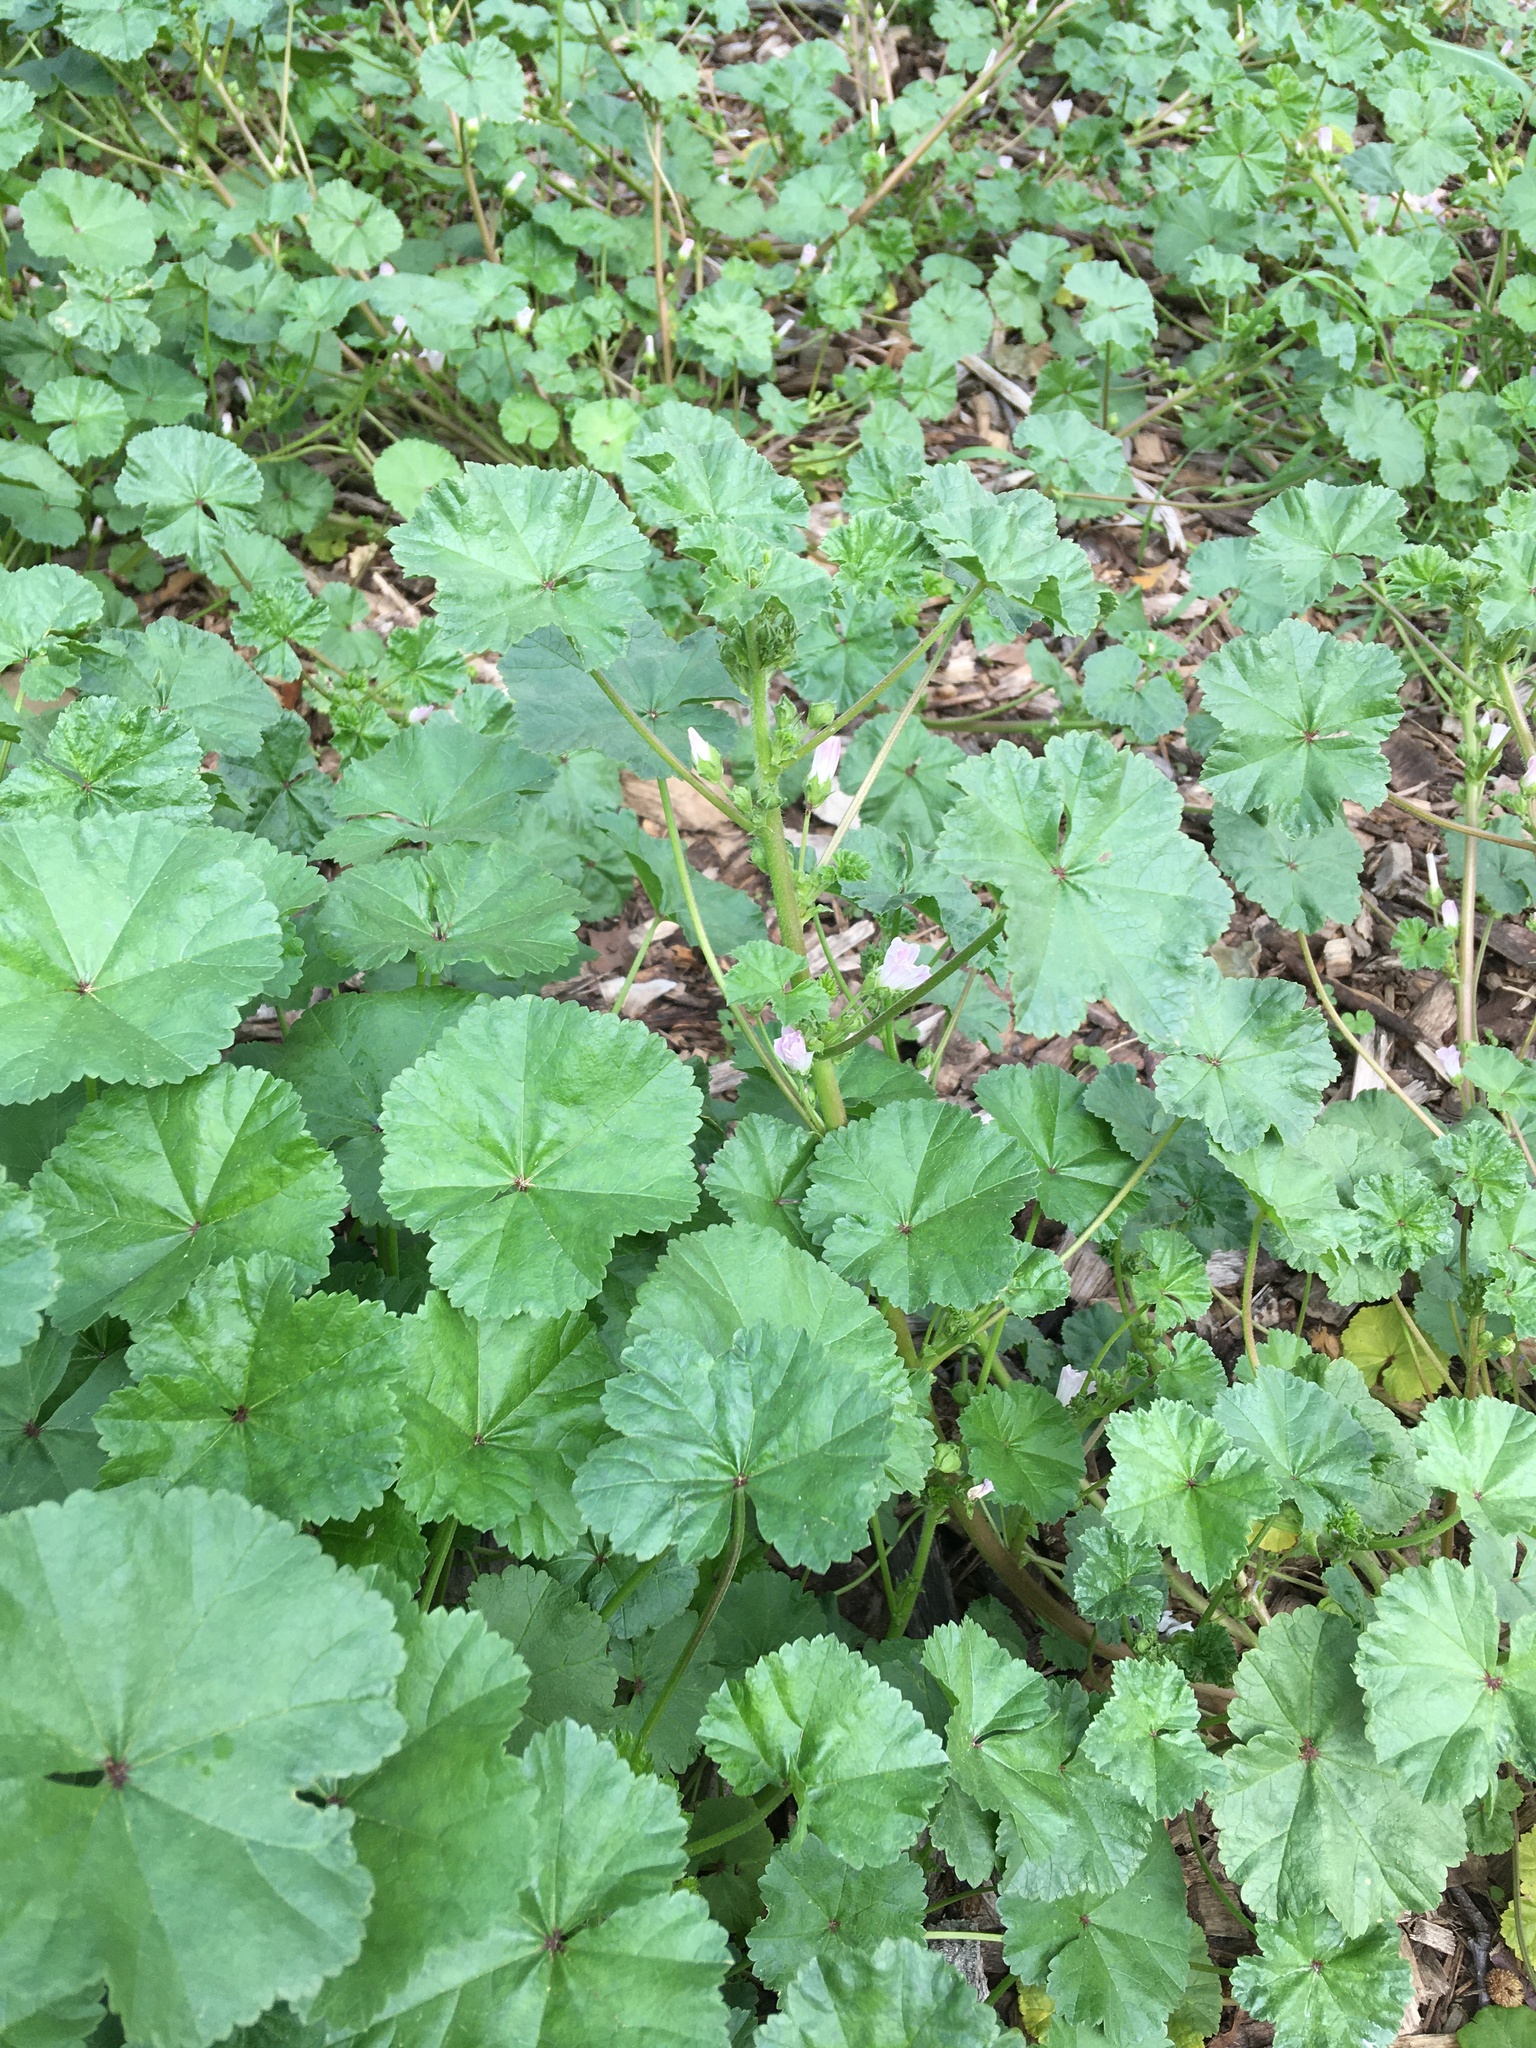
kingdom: Plantae
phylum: Tracheophyta
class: Magnoliopsida
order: Malvales
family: Malvaceae
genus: Malva
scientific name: Malva neglecta
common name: Common mallow
